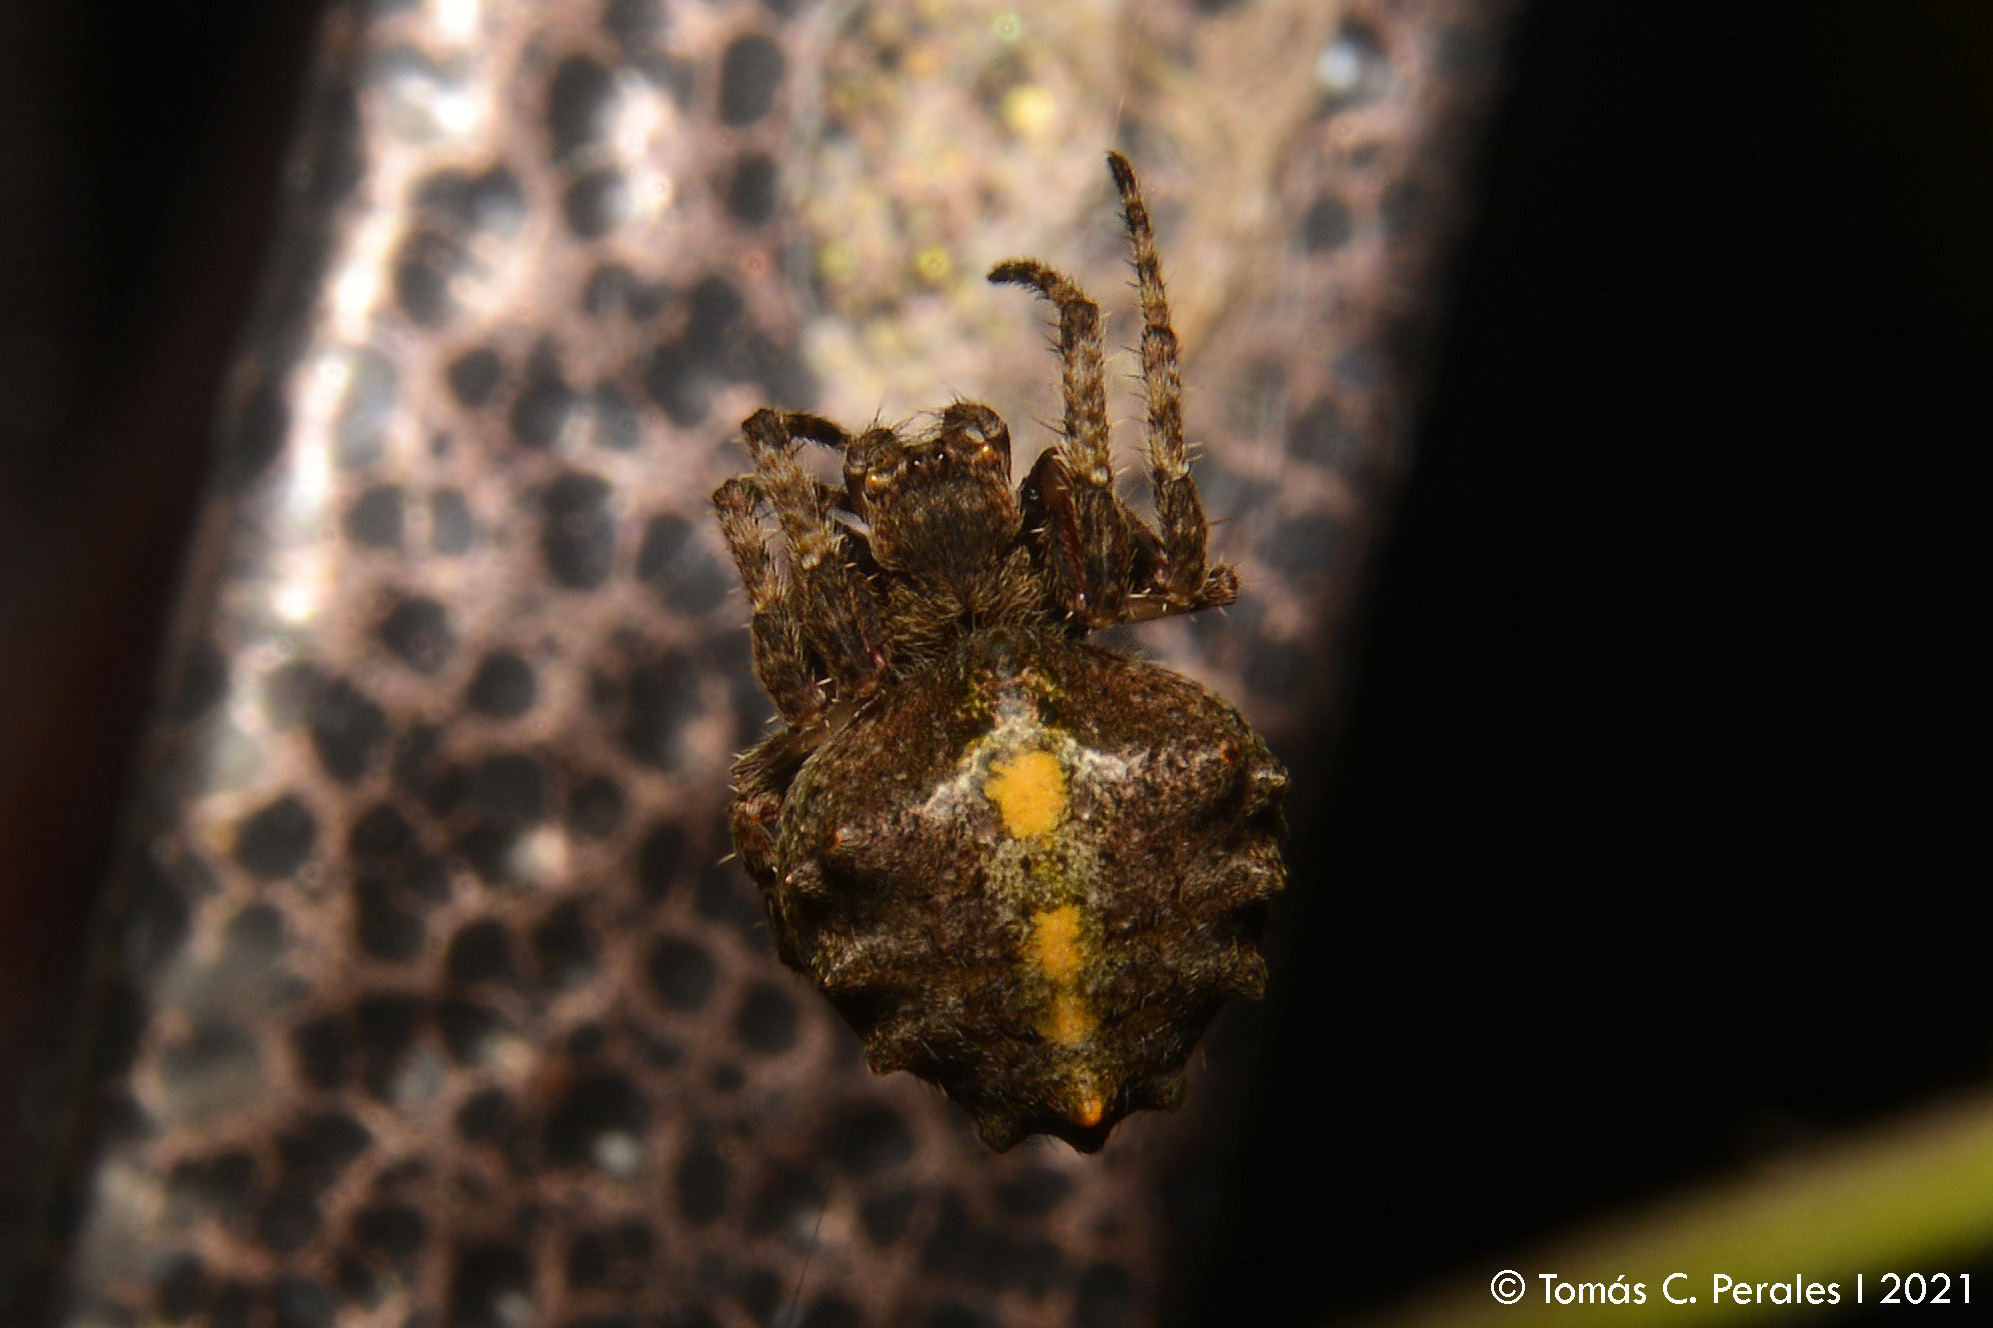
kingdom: Animalia
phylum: Arthropoda
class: Arachnida
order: Araneae
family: Araneidae
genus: Parawixia
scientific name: Parawixia audax
